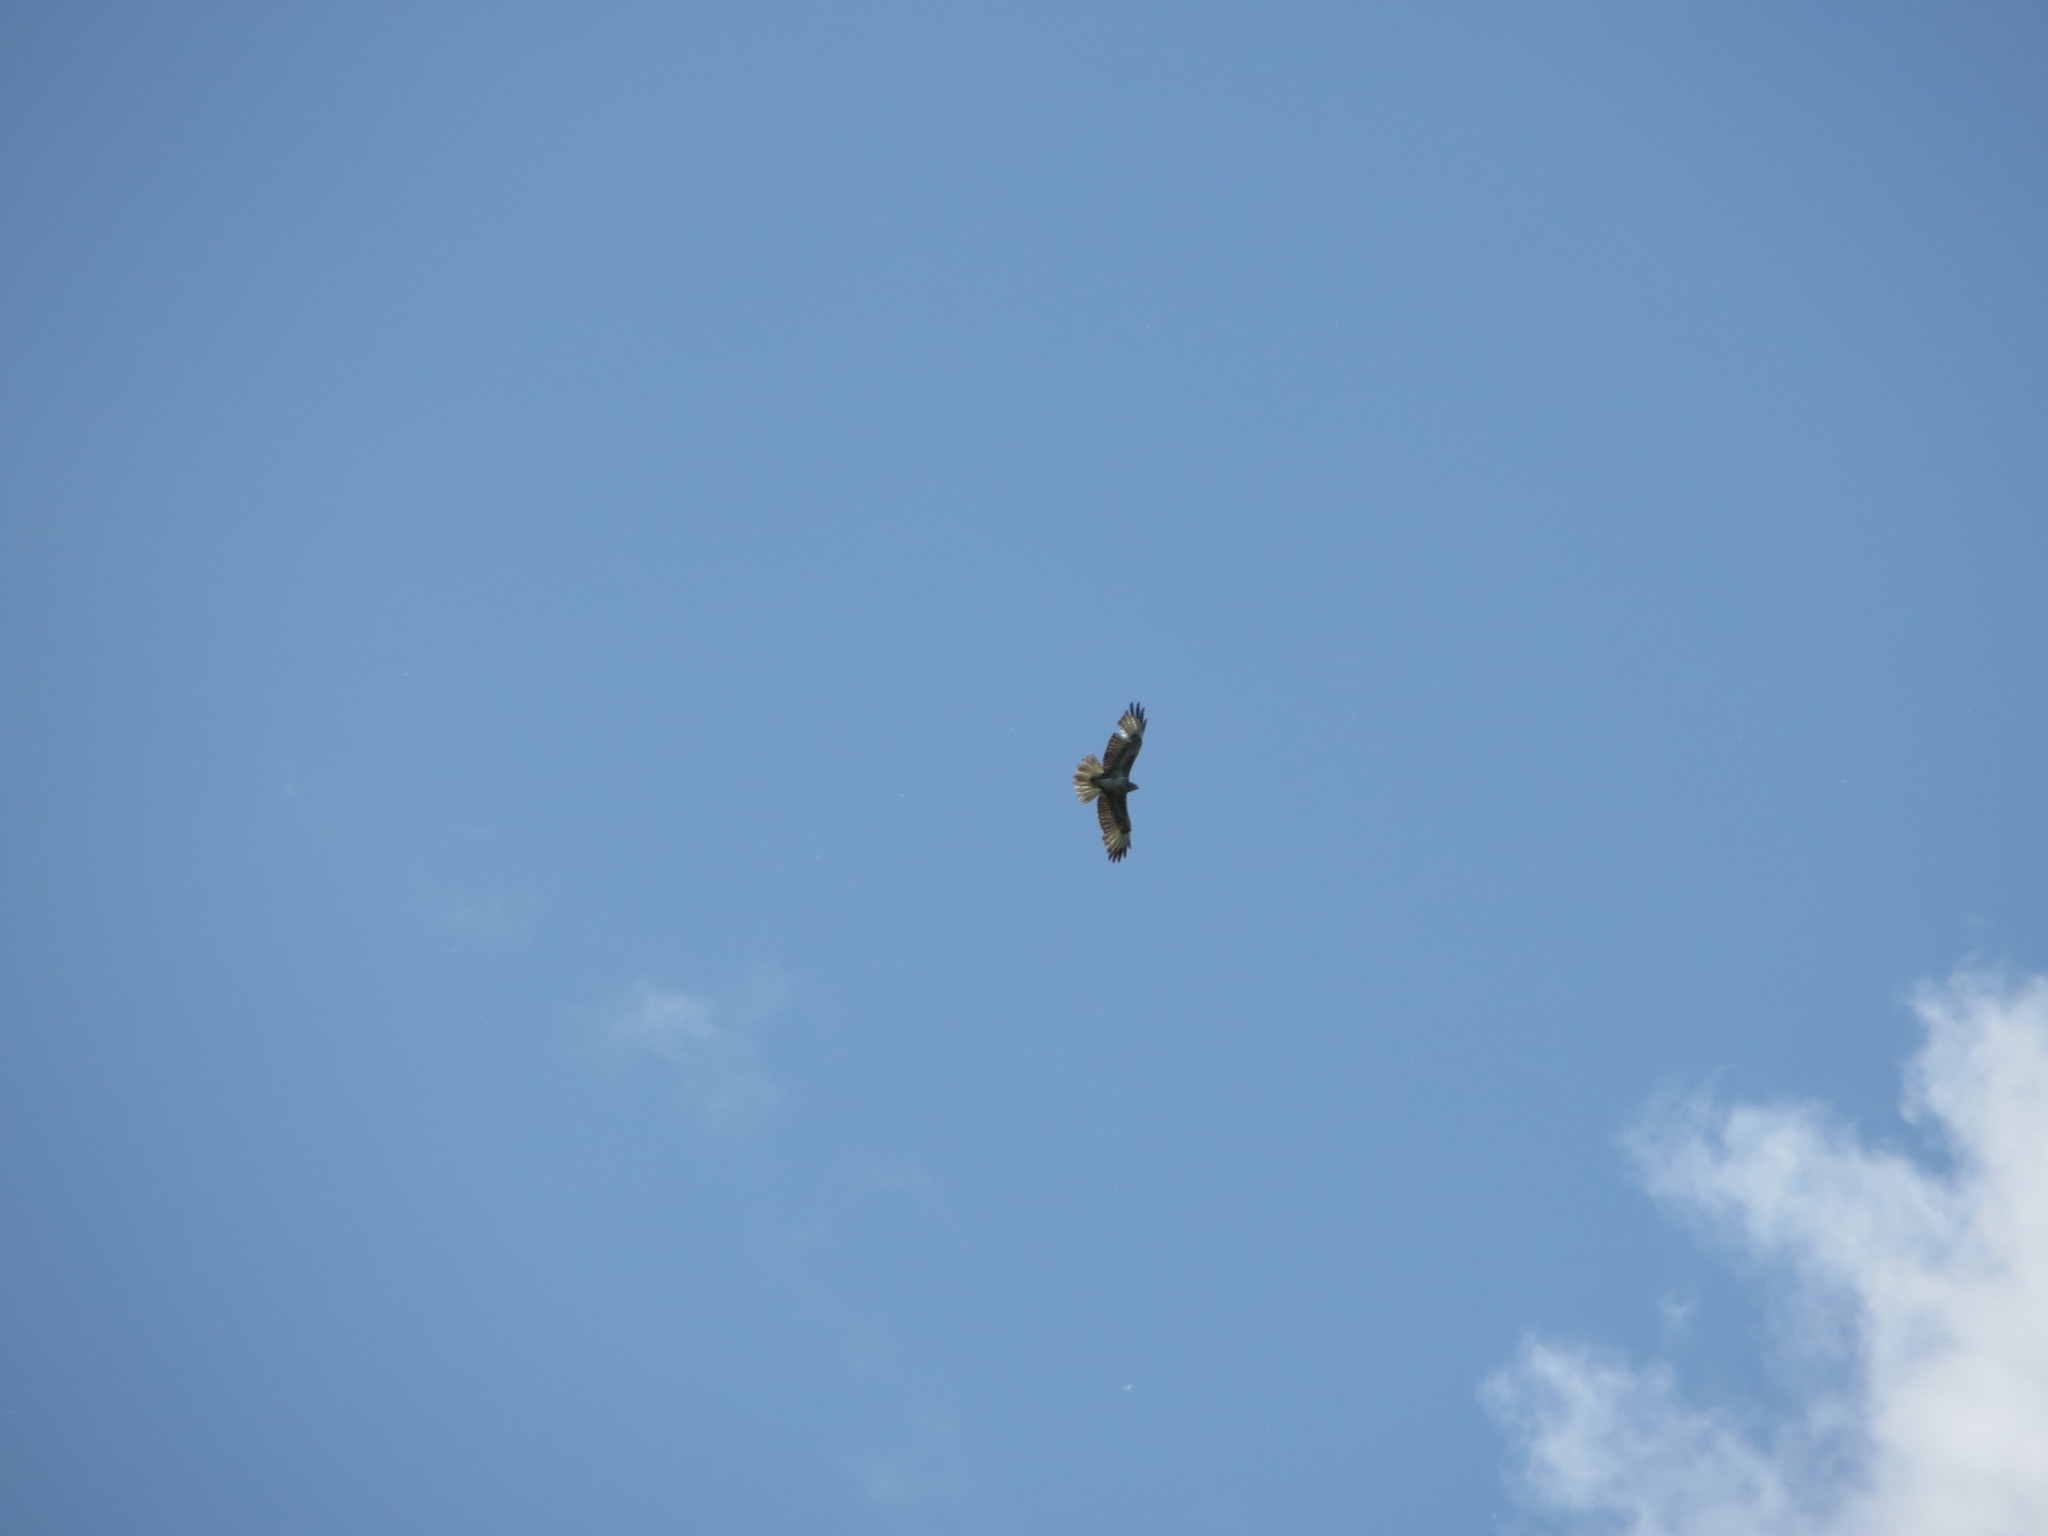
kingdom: Animalia
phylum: Chordata
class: Aves
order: Accipitriformes
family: Accipitridae
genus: Buteo
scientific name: Buteo buteo
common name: Common buzzard
